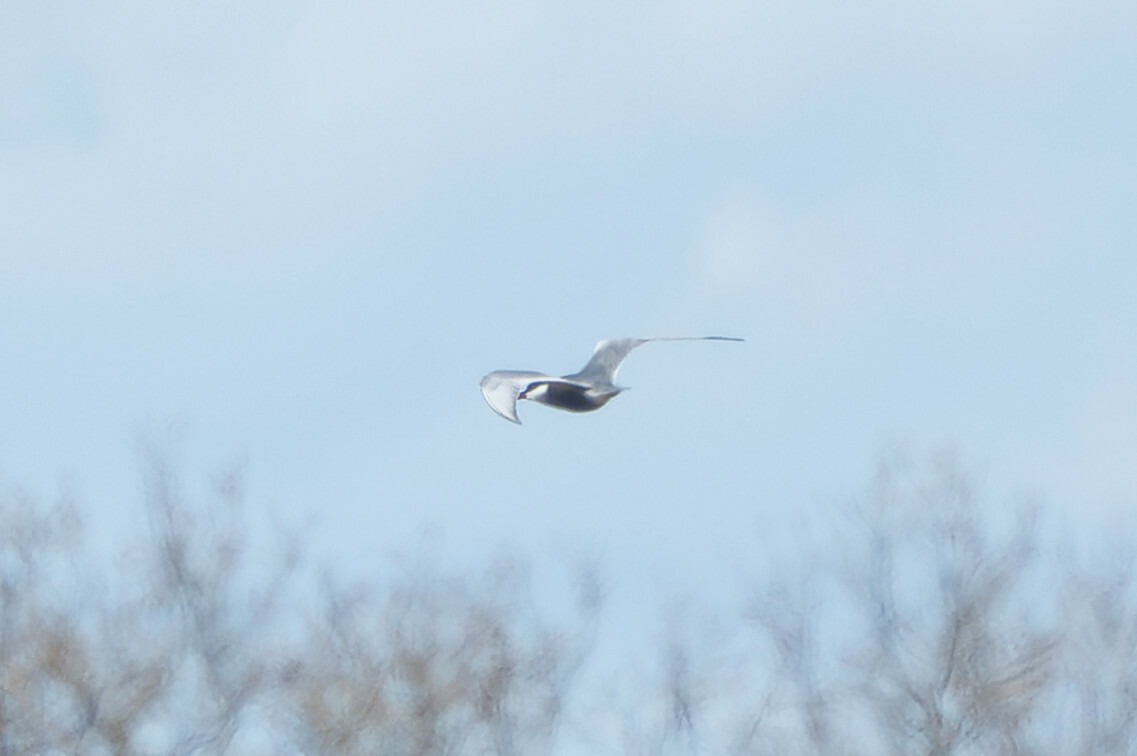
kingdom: Animalia
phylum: Chordata
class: Aves
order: Charadriiformes
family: Laridae
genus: Chlidonias
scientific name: Chlidonias hybrida
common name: Whiskered tern
